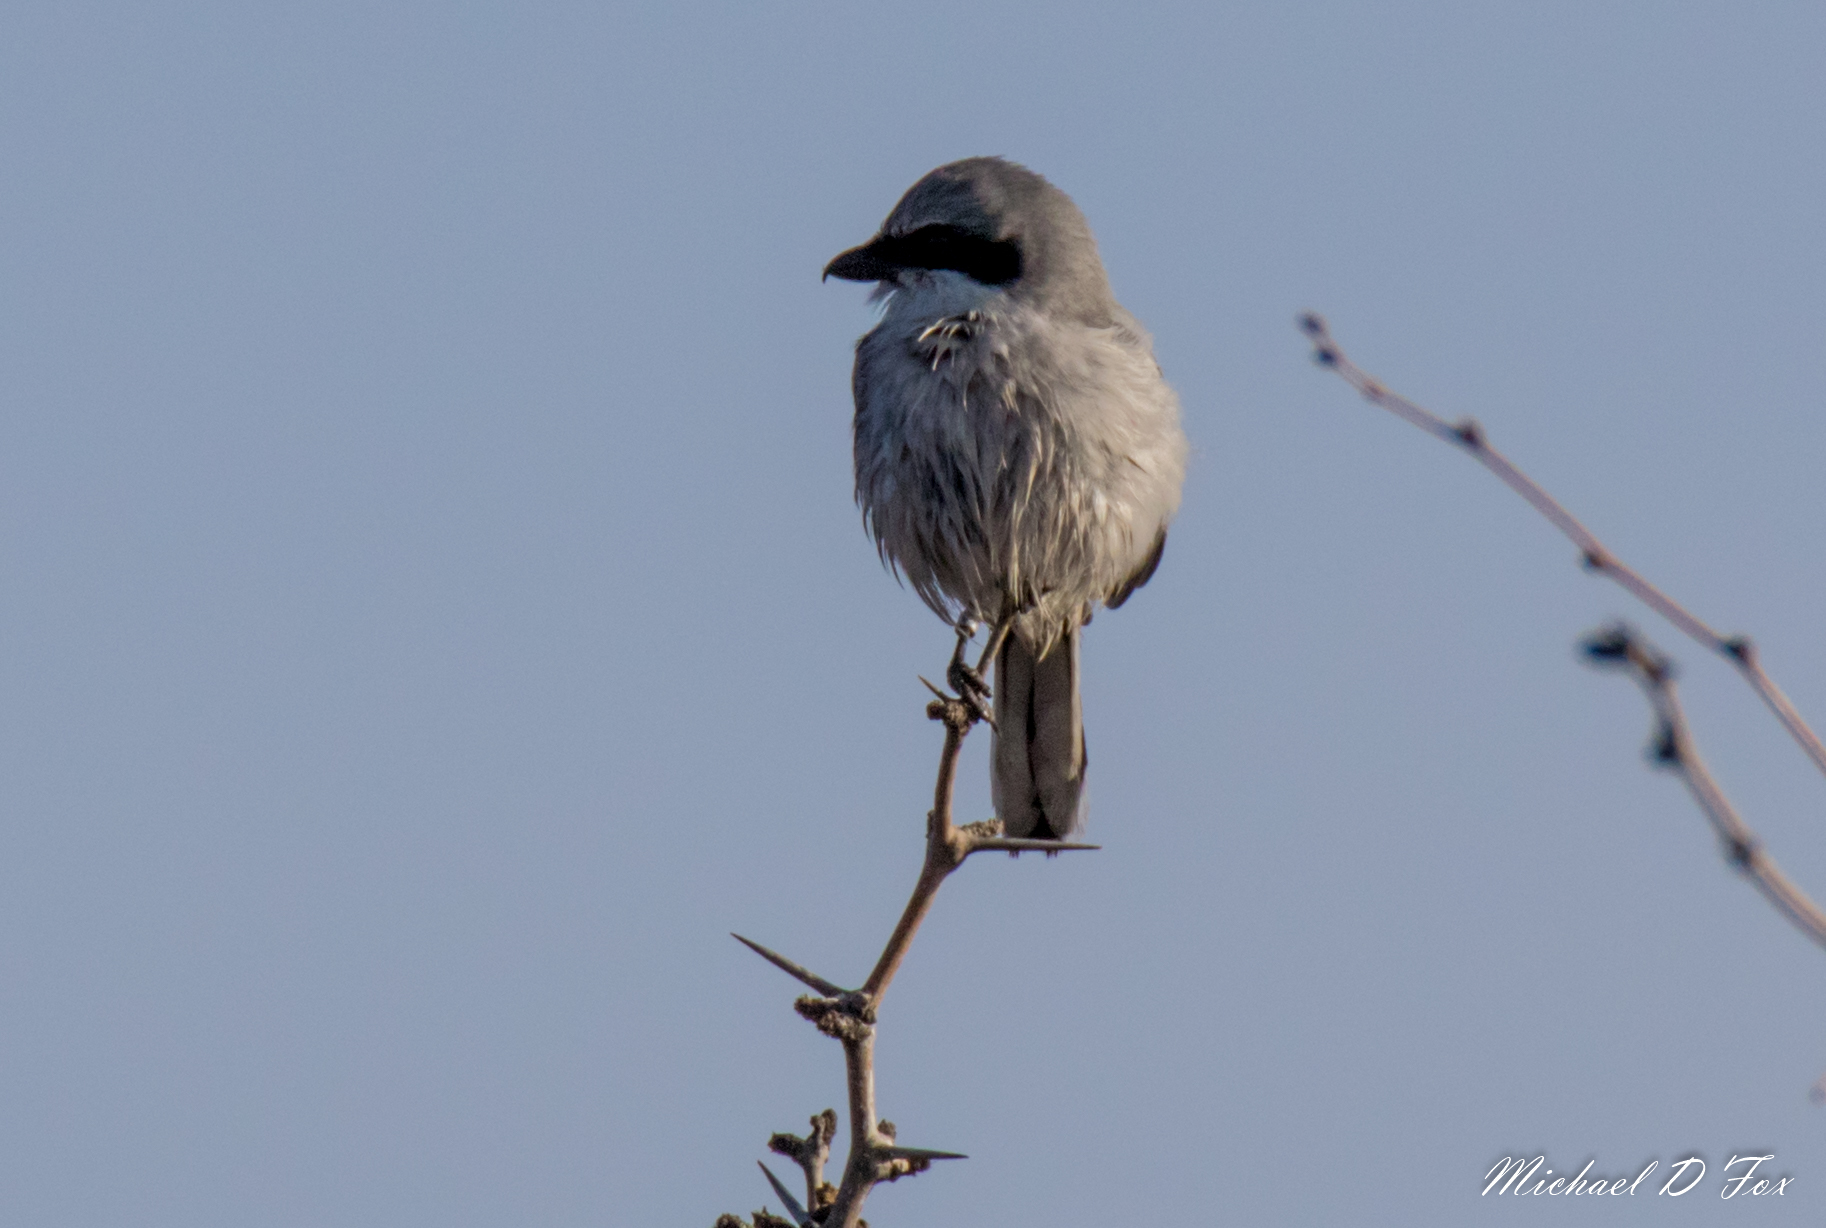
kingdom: Animalia
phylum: Chordata
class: Aves
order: Passeriformes
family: Laniidae
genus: Lanius
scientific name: Lanius ludovicianus
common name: Loggerhead shrike
